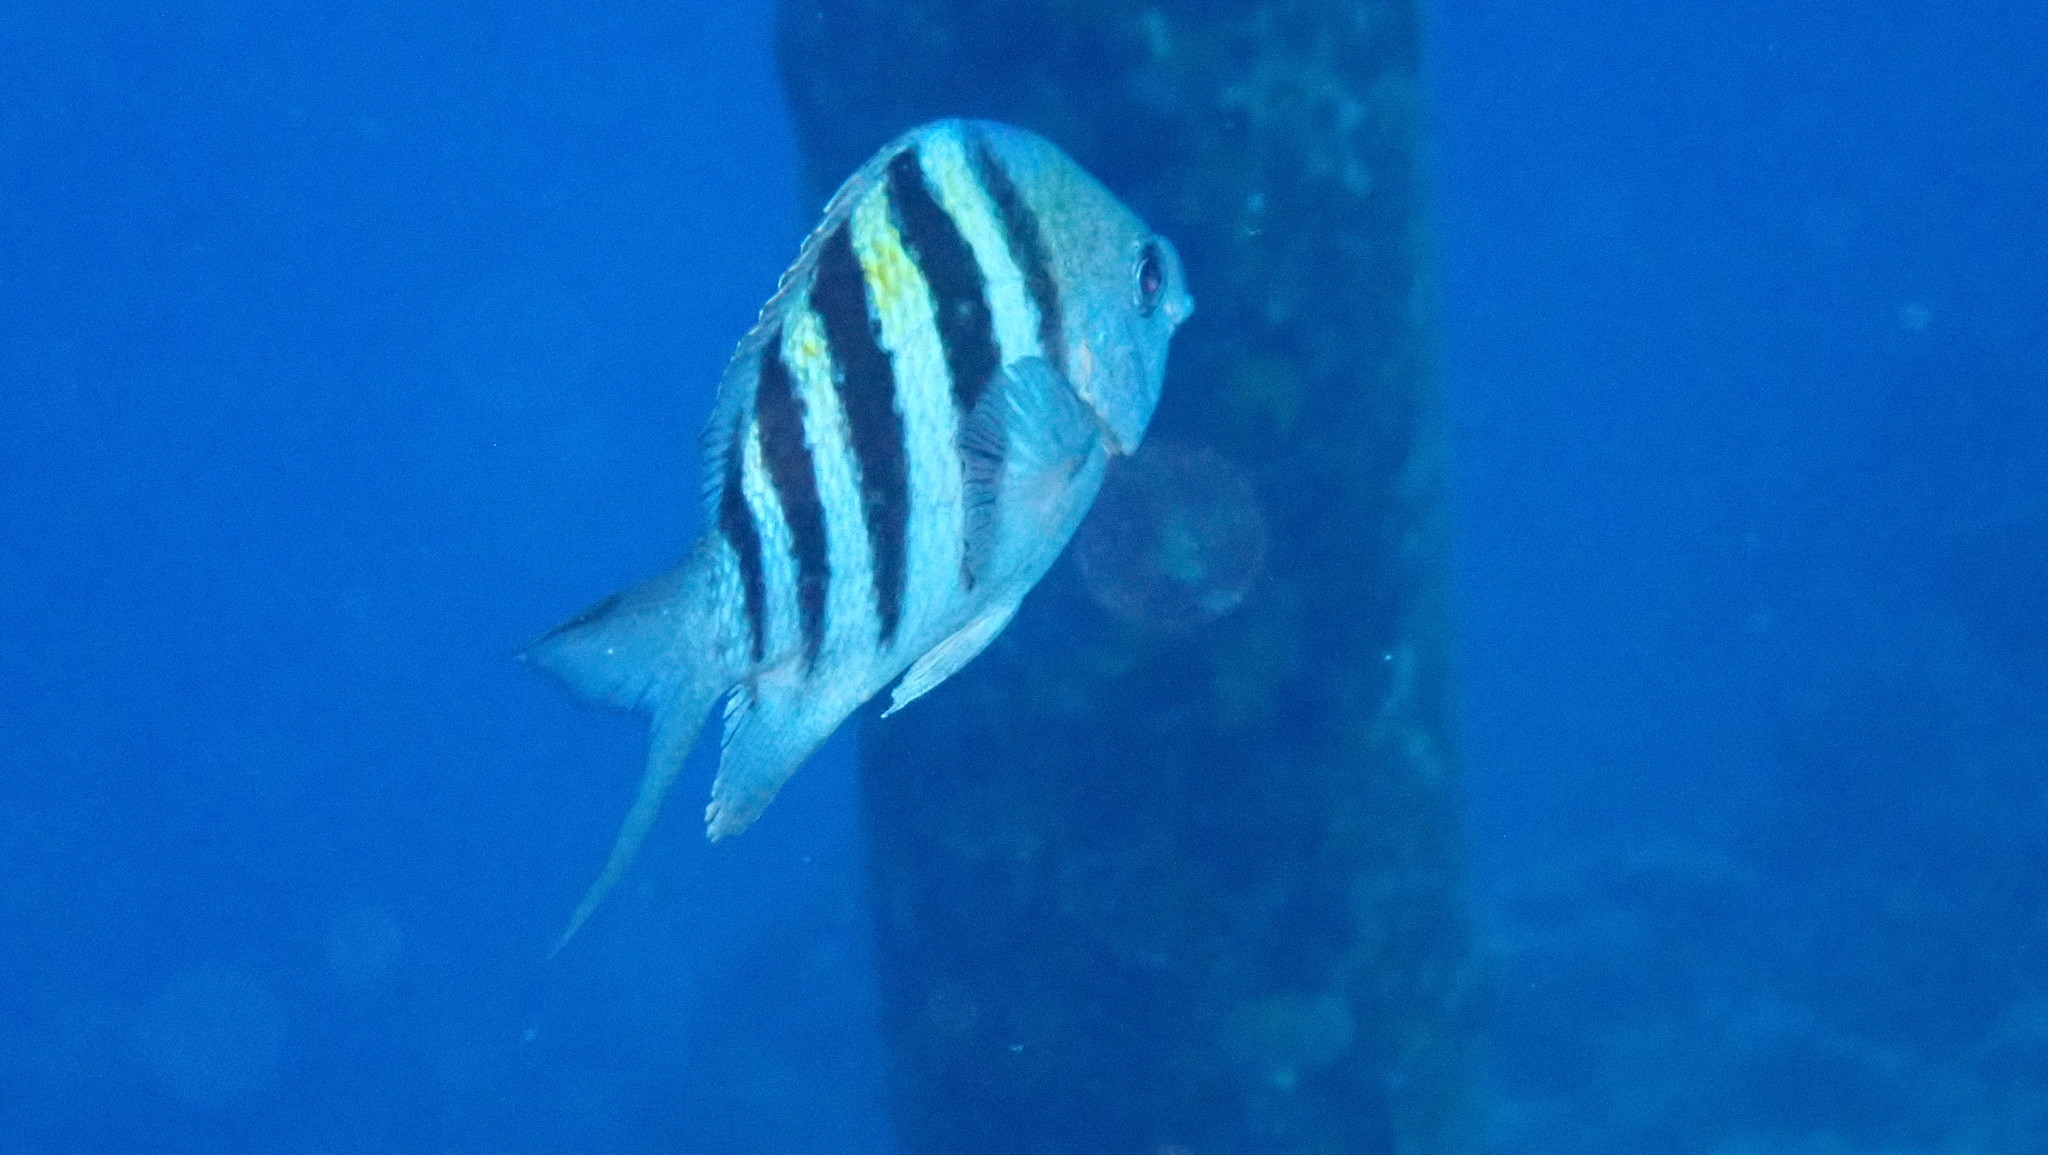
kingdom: Animalia
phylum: Chordata
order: Perciformes
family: Pomacentridae
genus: Abudefduf
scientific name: Abudefduf saxatilis
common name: Sergeant major
